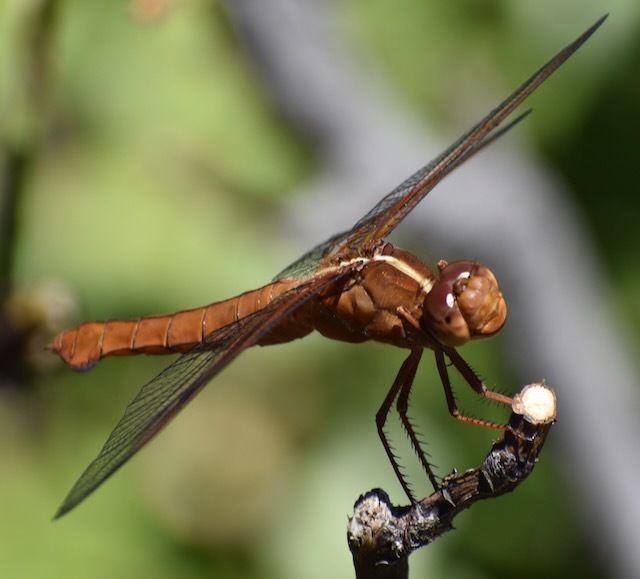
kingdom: Animalia
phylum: Arthropoda
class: Insecta
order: Odonata
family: Libellulidae
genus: Libellula
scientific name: Libellula croceipennis
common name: Neon skimmer
